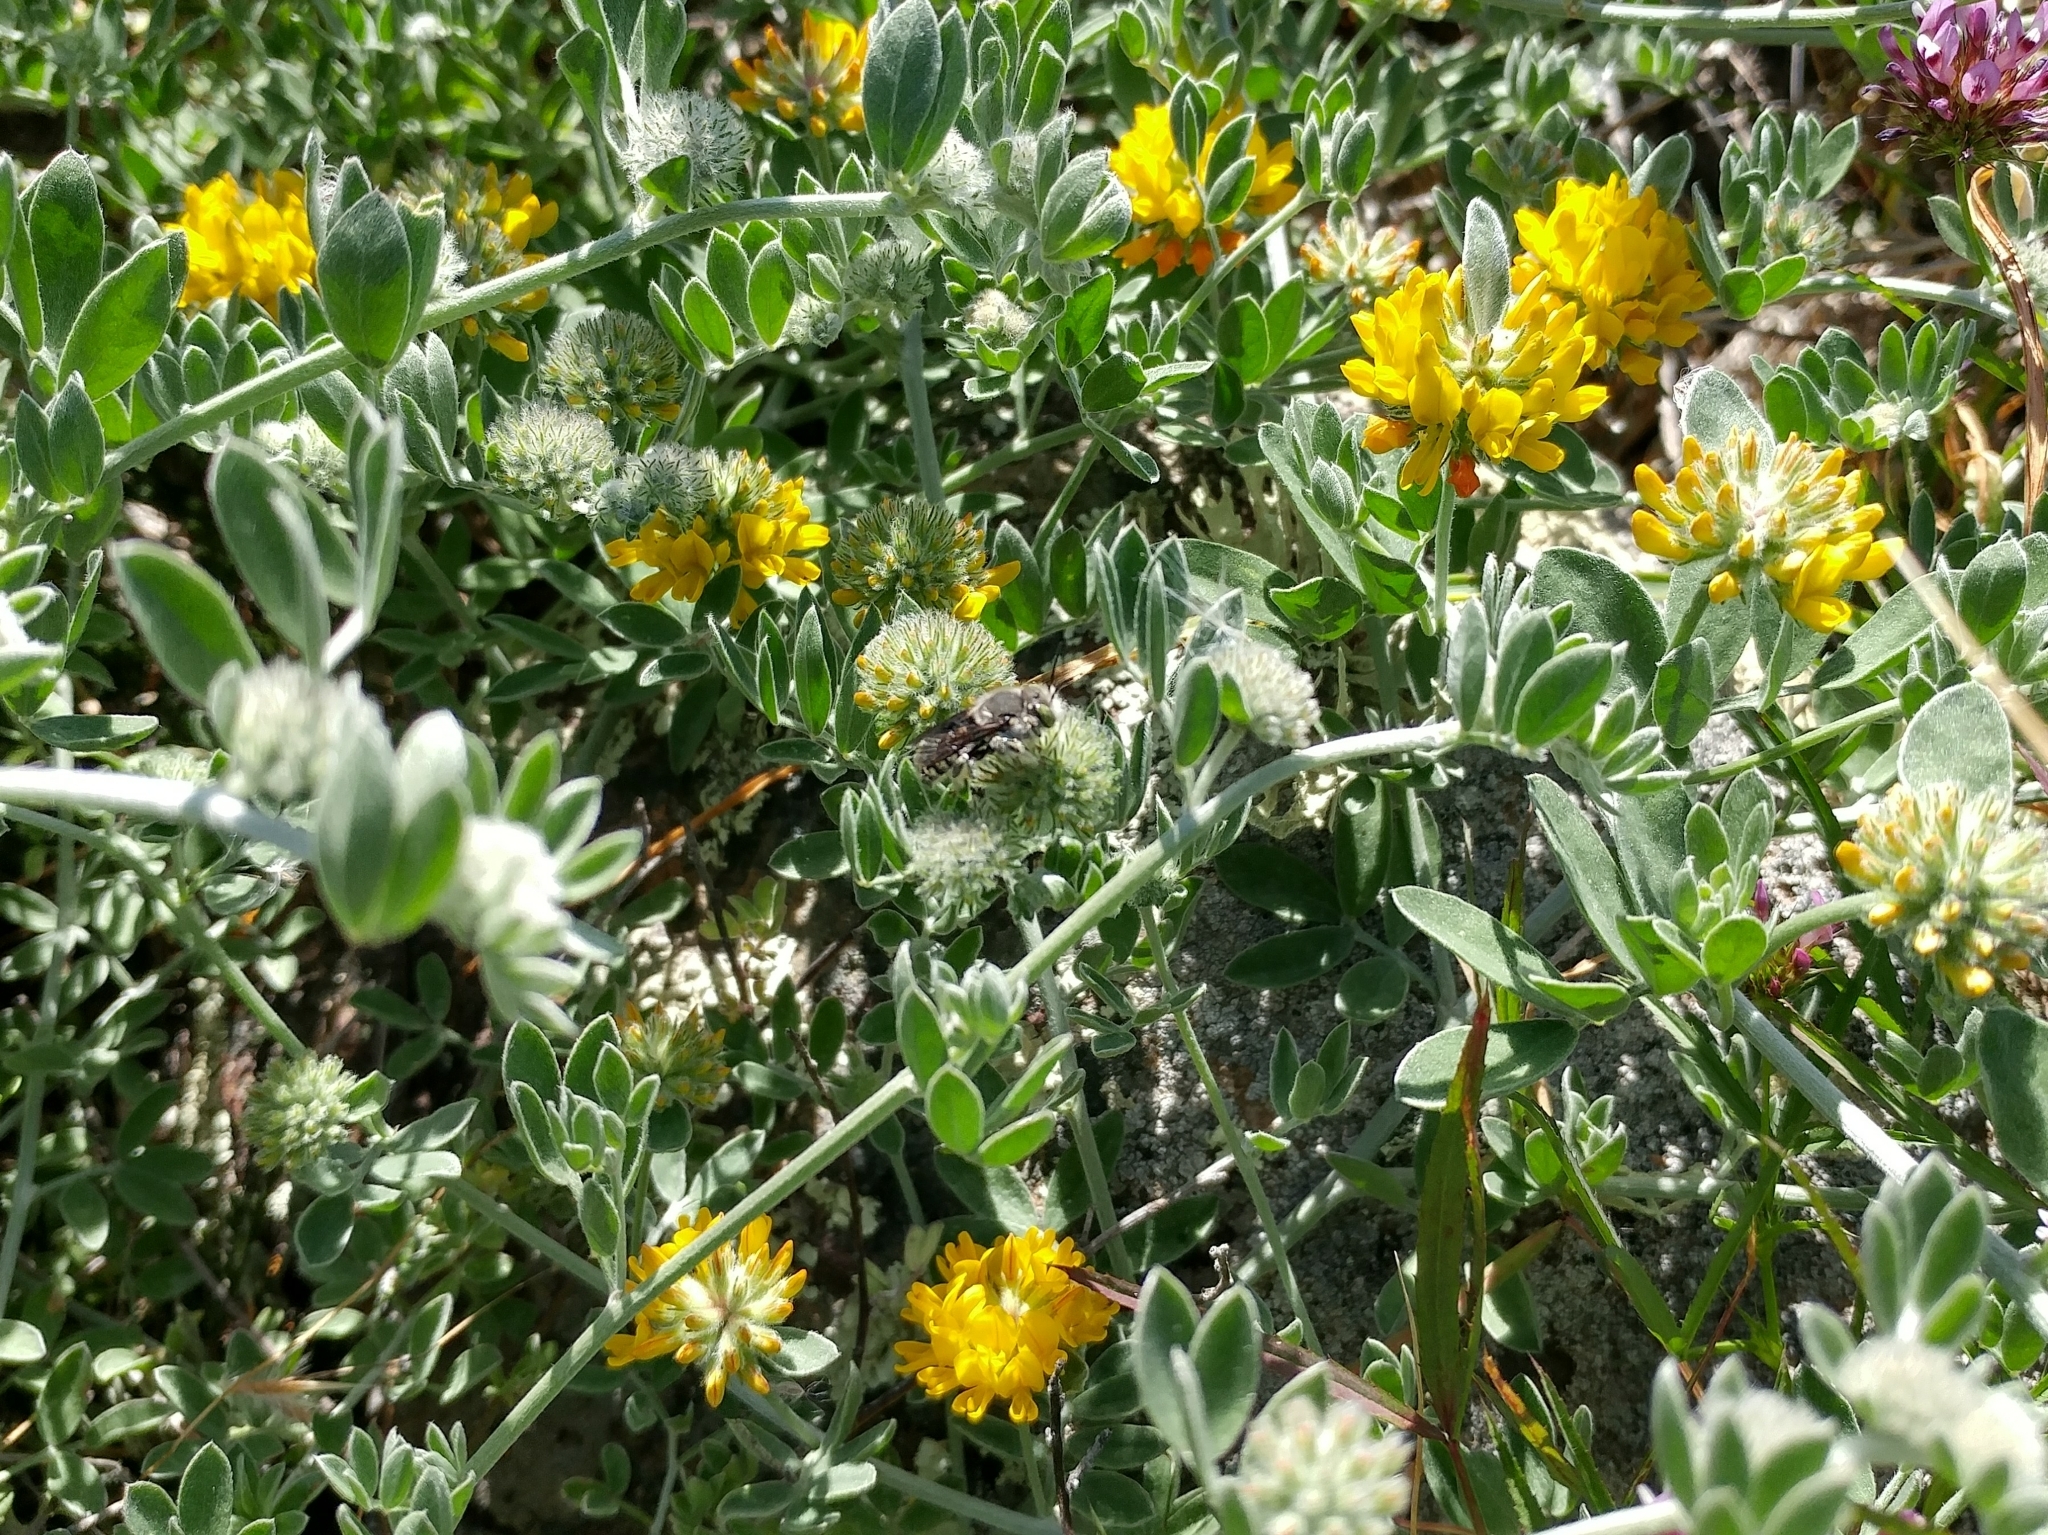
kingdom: Plantae
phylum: Tracheophyta
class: Magnoliopsida
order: Fabales
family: Fabaceae
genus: Acmispon
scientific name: Acmispon argophyllus
